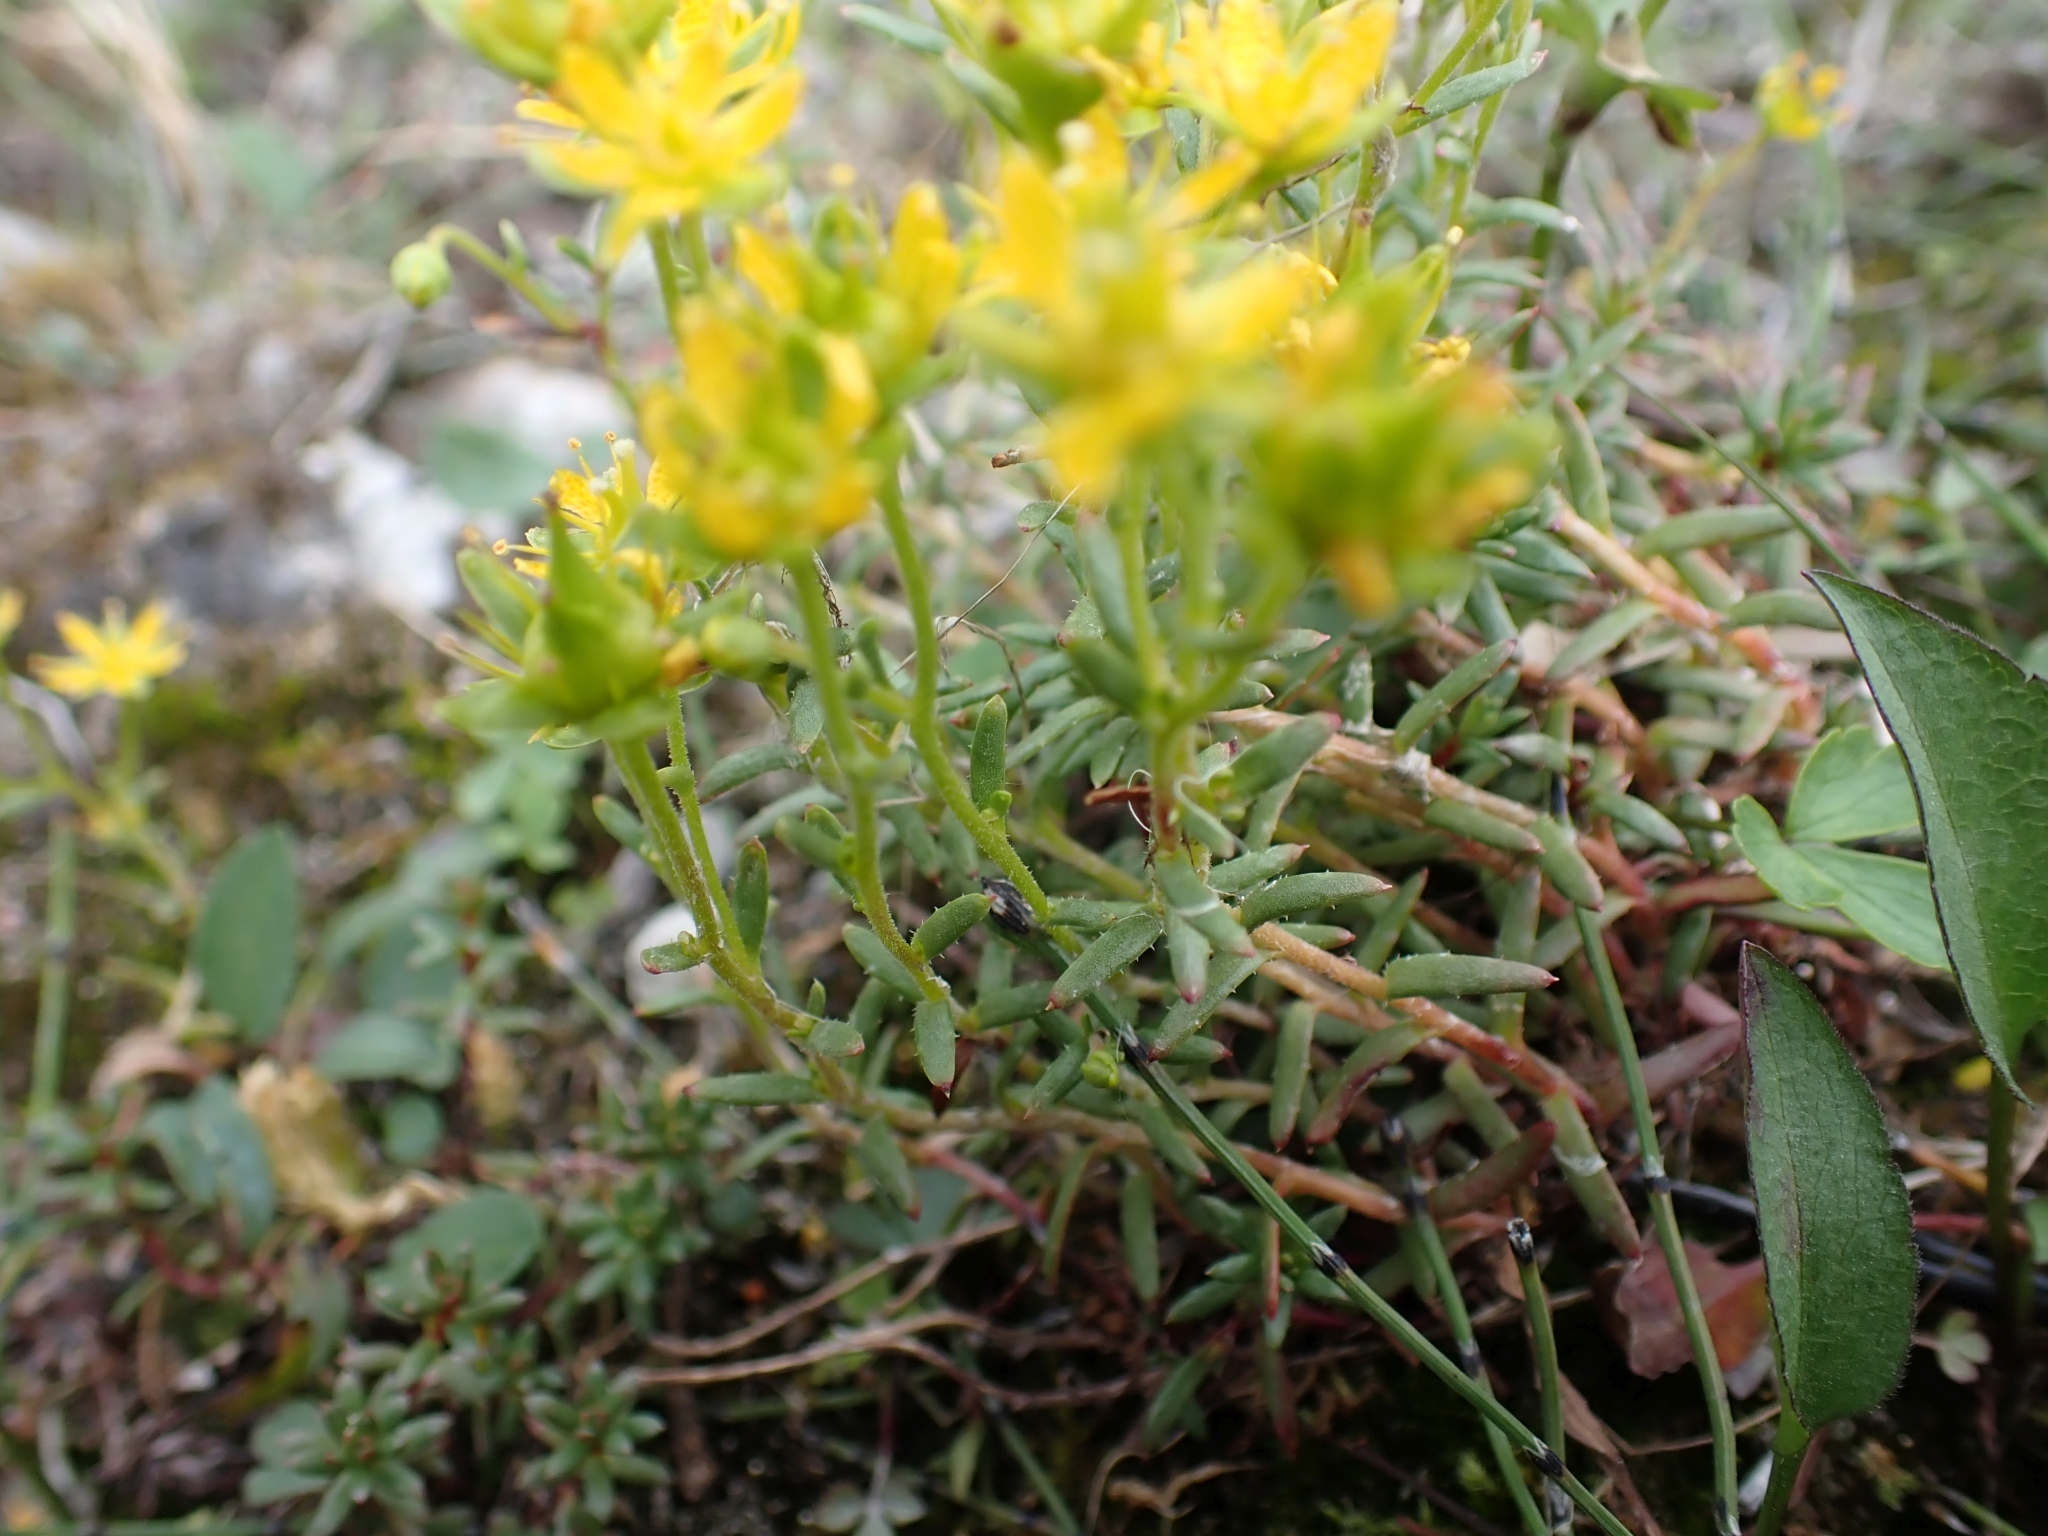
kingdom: Plantae
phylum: Tracheophyta
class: Magnoliopsida
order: Saxifragales
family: Saxifragaceae
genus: Saxifraga
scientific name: Saxifraga aizoides
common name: Yellow mountain saxifrage
